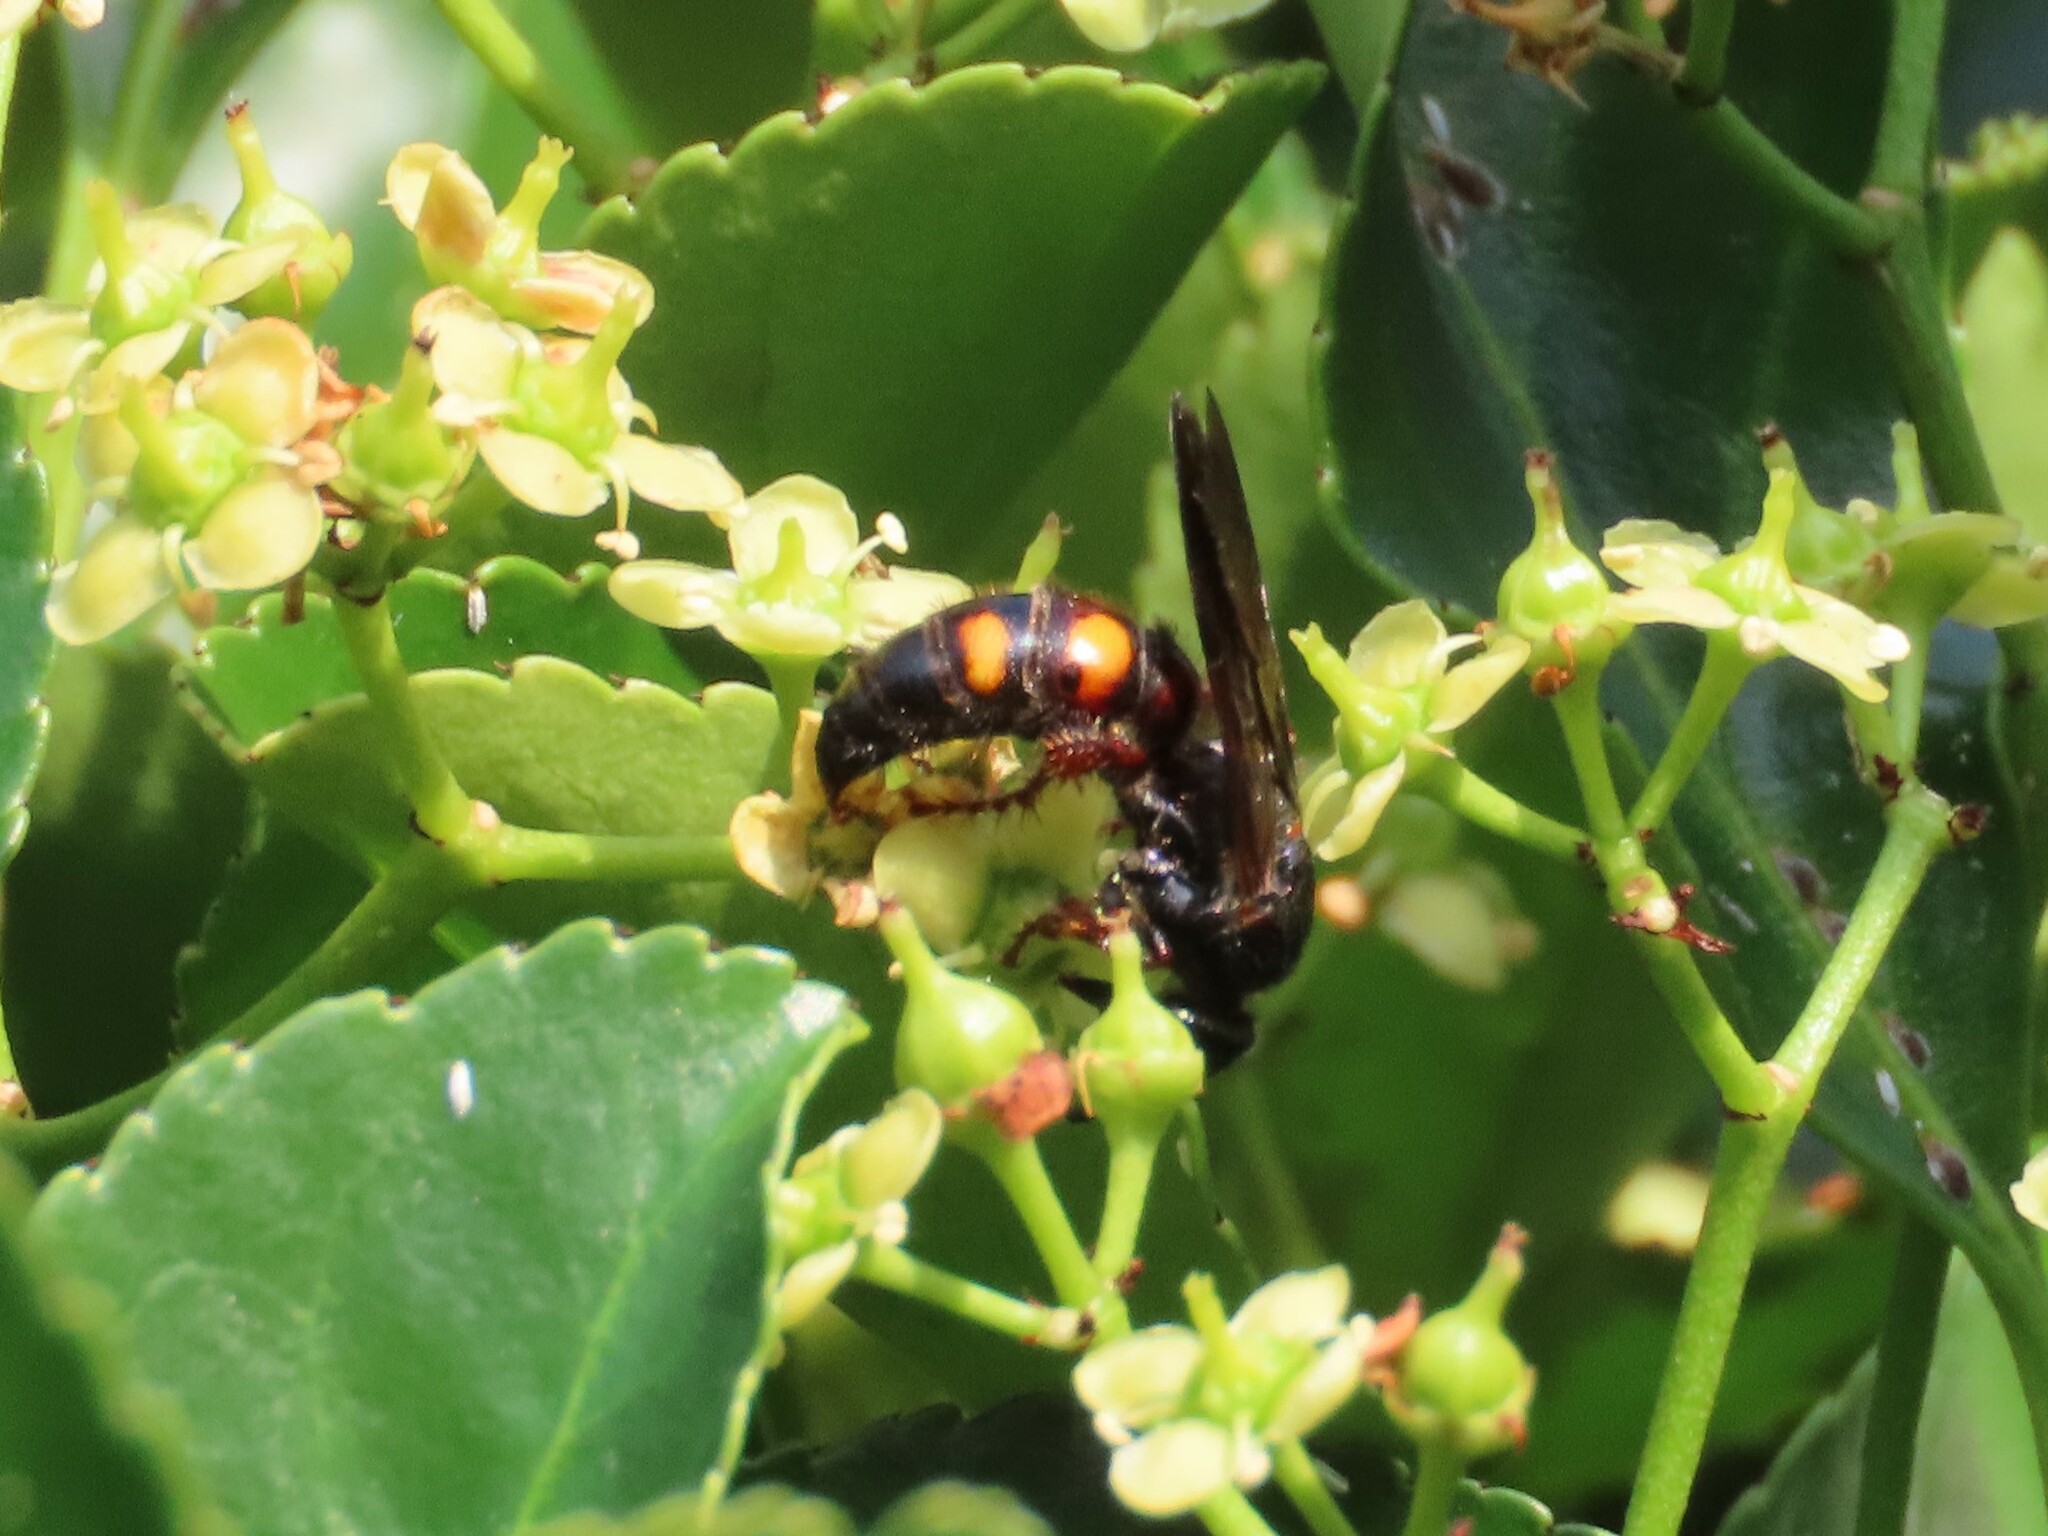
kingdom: Animalia
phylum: Arthropoda
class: Insecta
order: Hymenoptera
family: Scoliidae
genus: Scolia
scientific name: Scolia nobilitata
